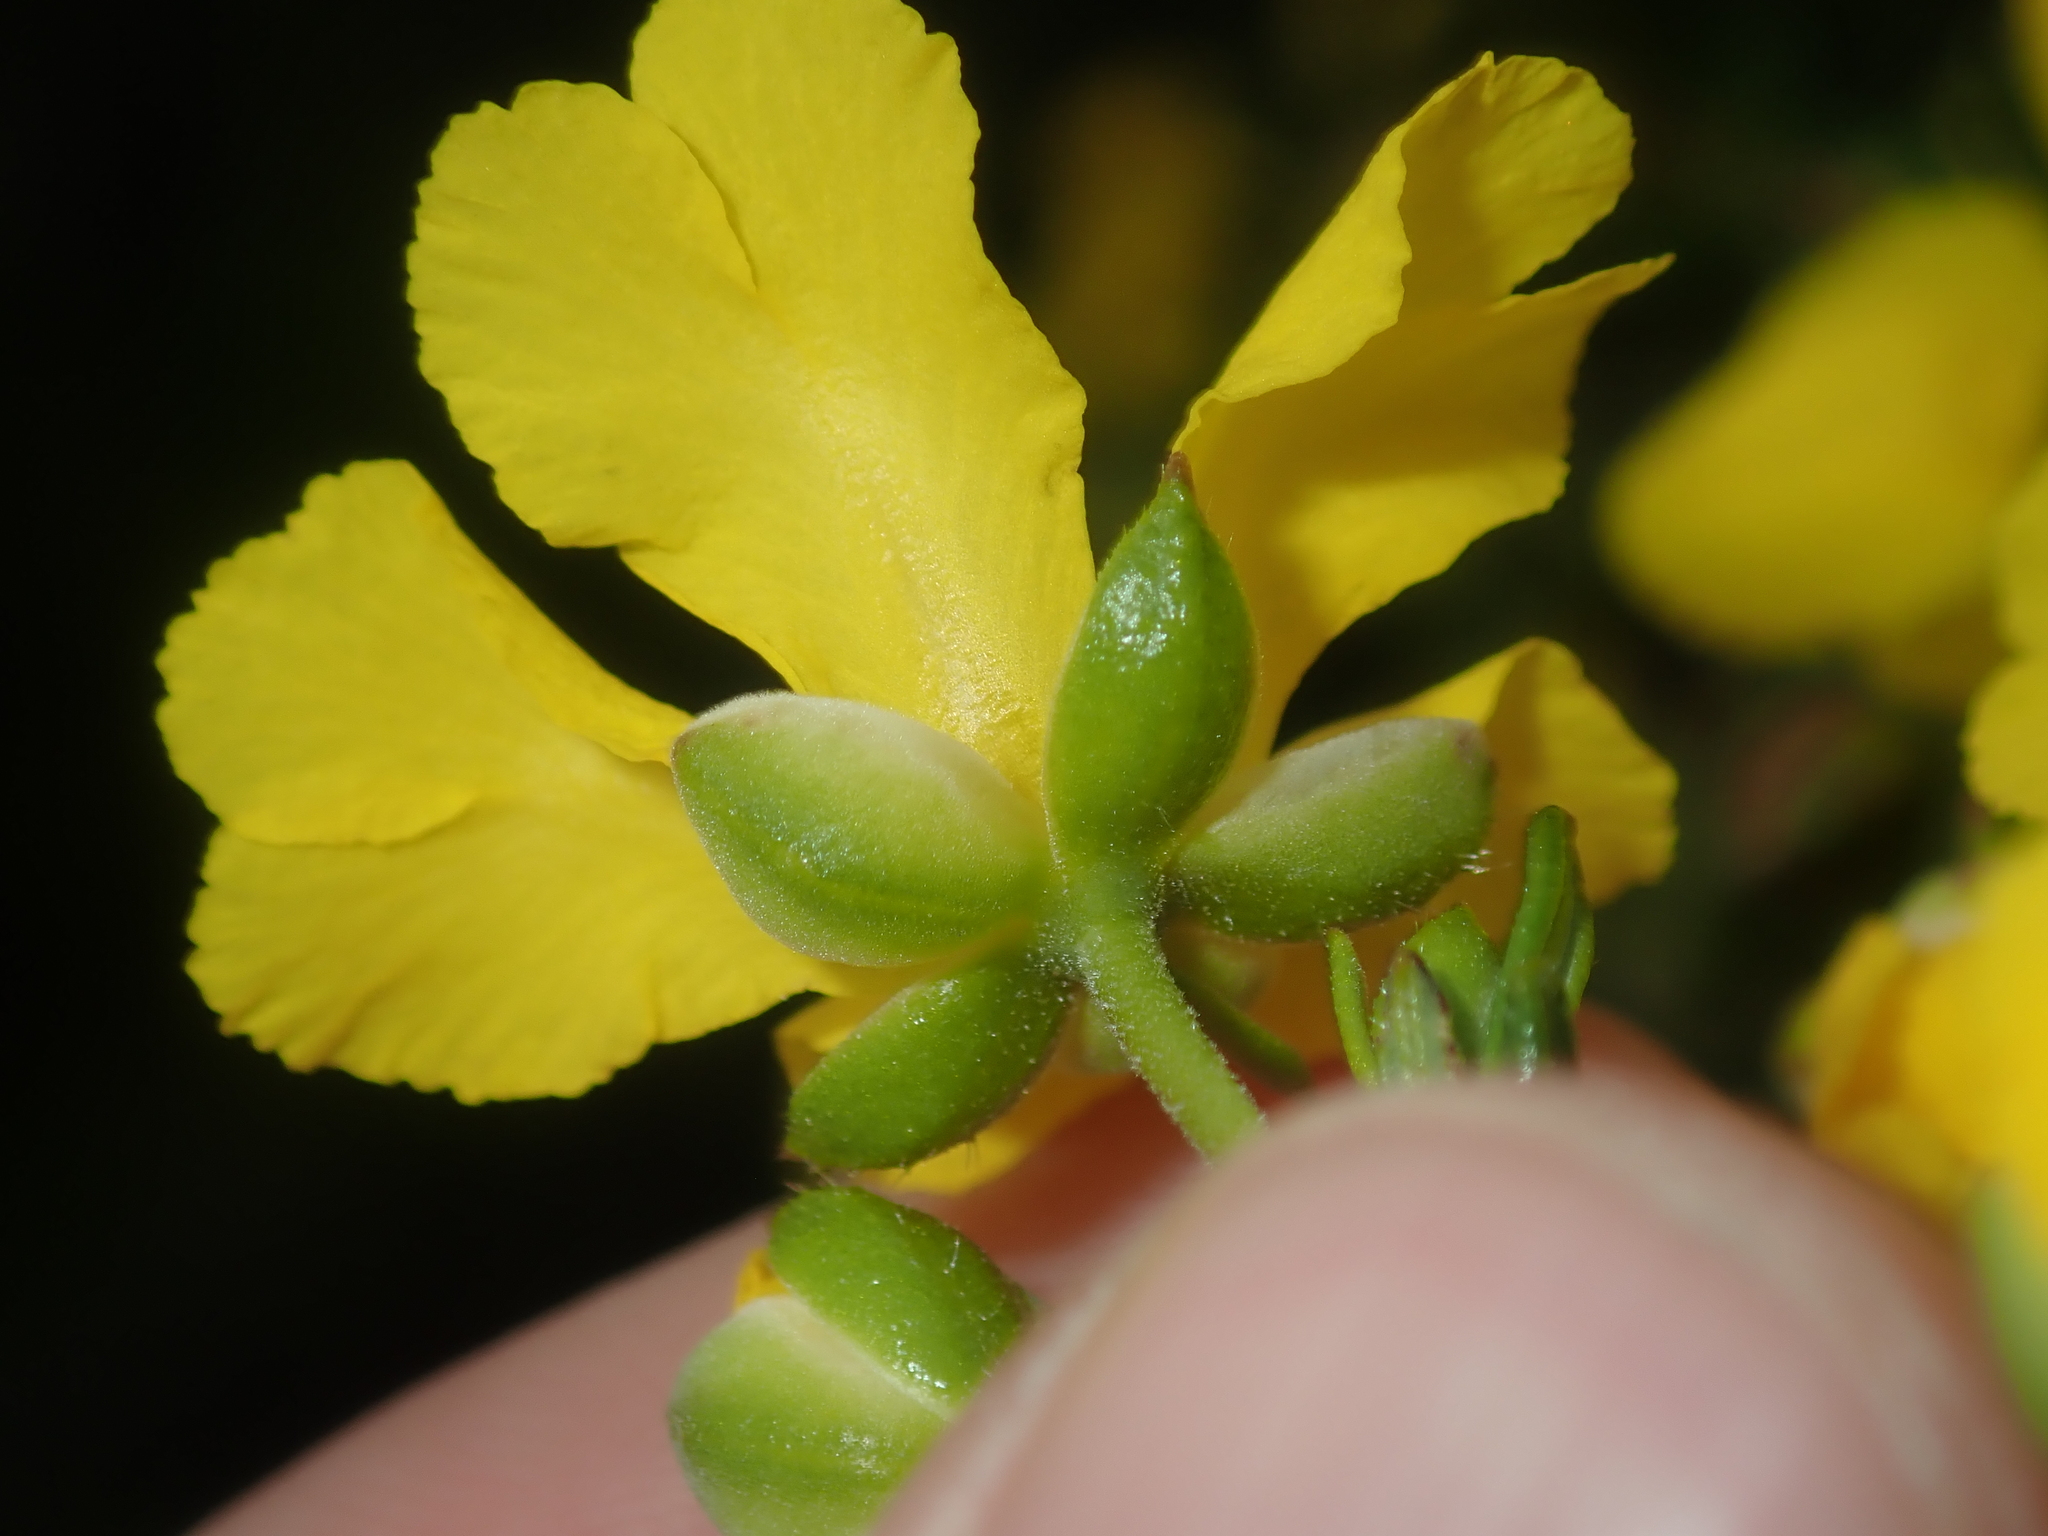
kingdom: Plantae
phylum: Tracheophyta
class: Magnoliopsida
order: Dilleniales
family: Dilleniaceae
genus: Hibbertia
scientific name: Hibbertia hypericoides
